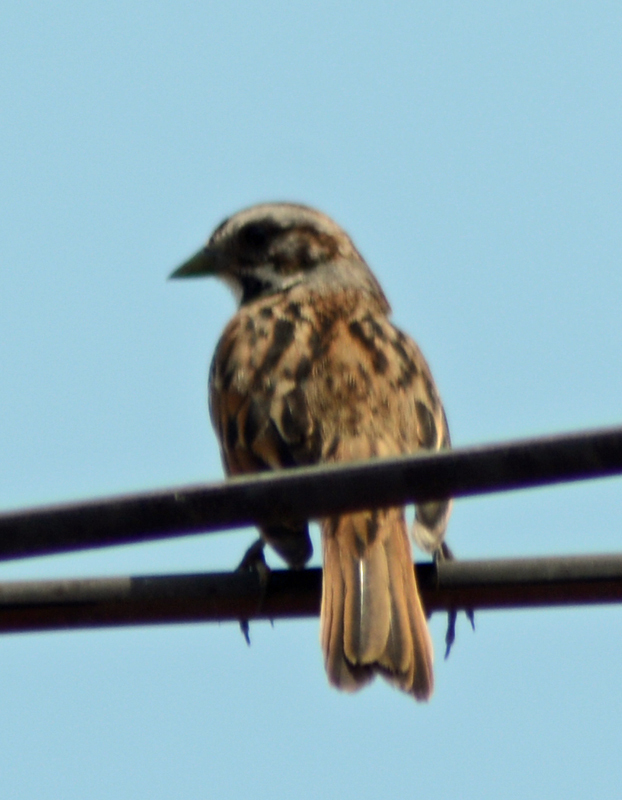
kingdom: Animalia
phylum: Chordata
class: Aves
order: Passeriformes
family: Passerellidae
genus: Melospiza
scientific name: Melospiza melodia
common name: Song sparrow
